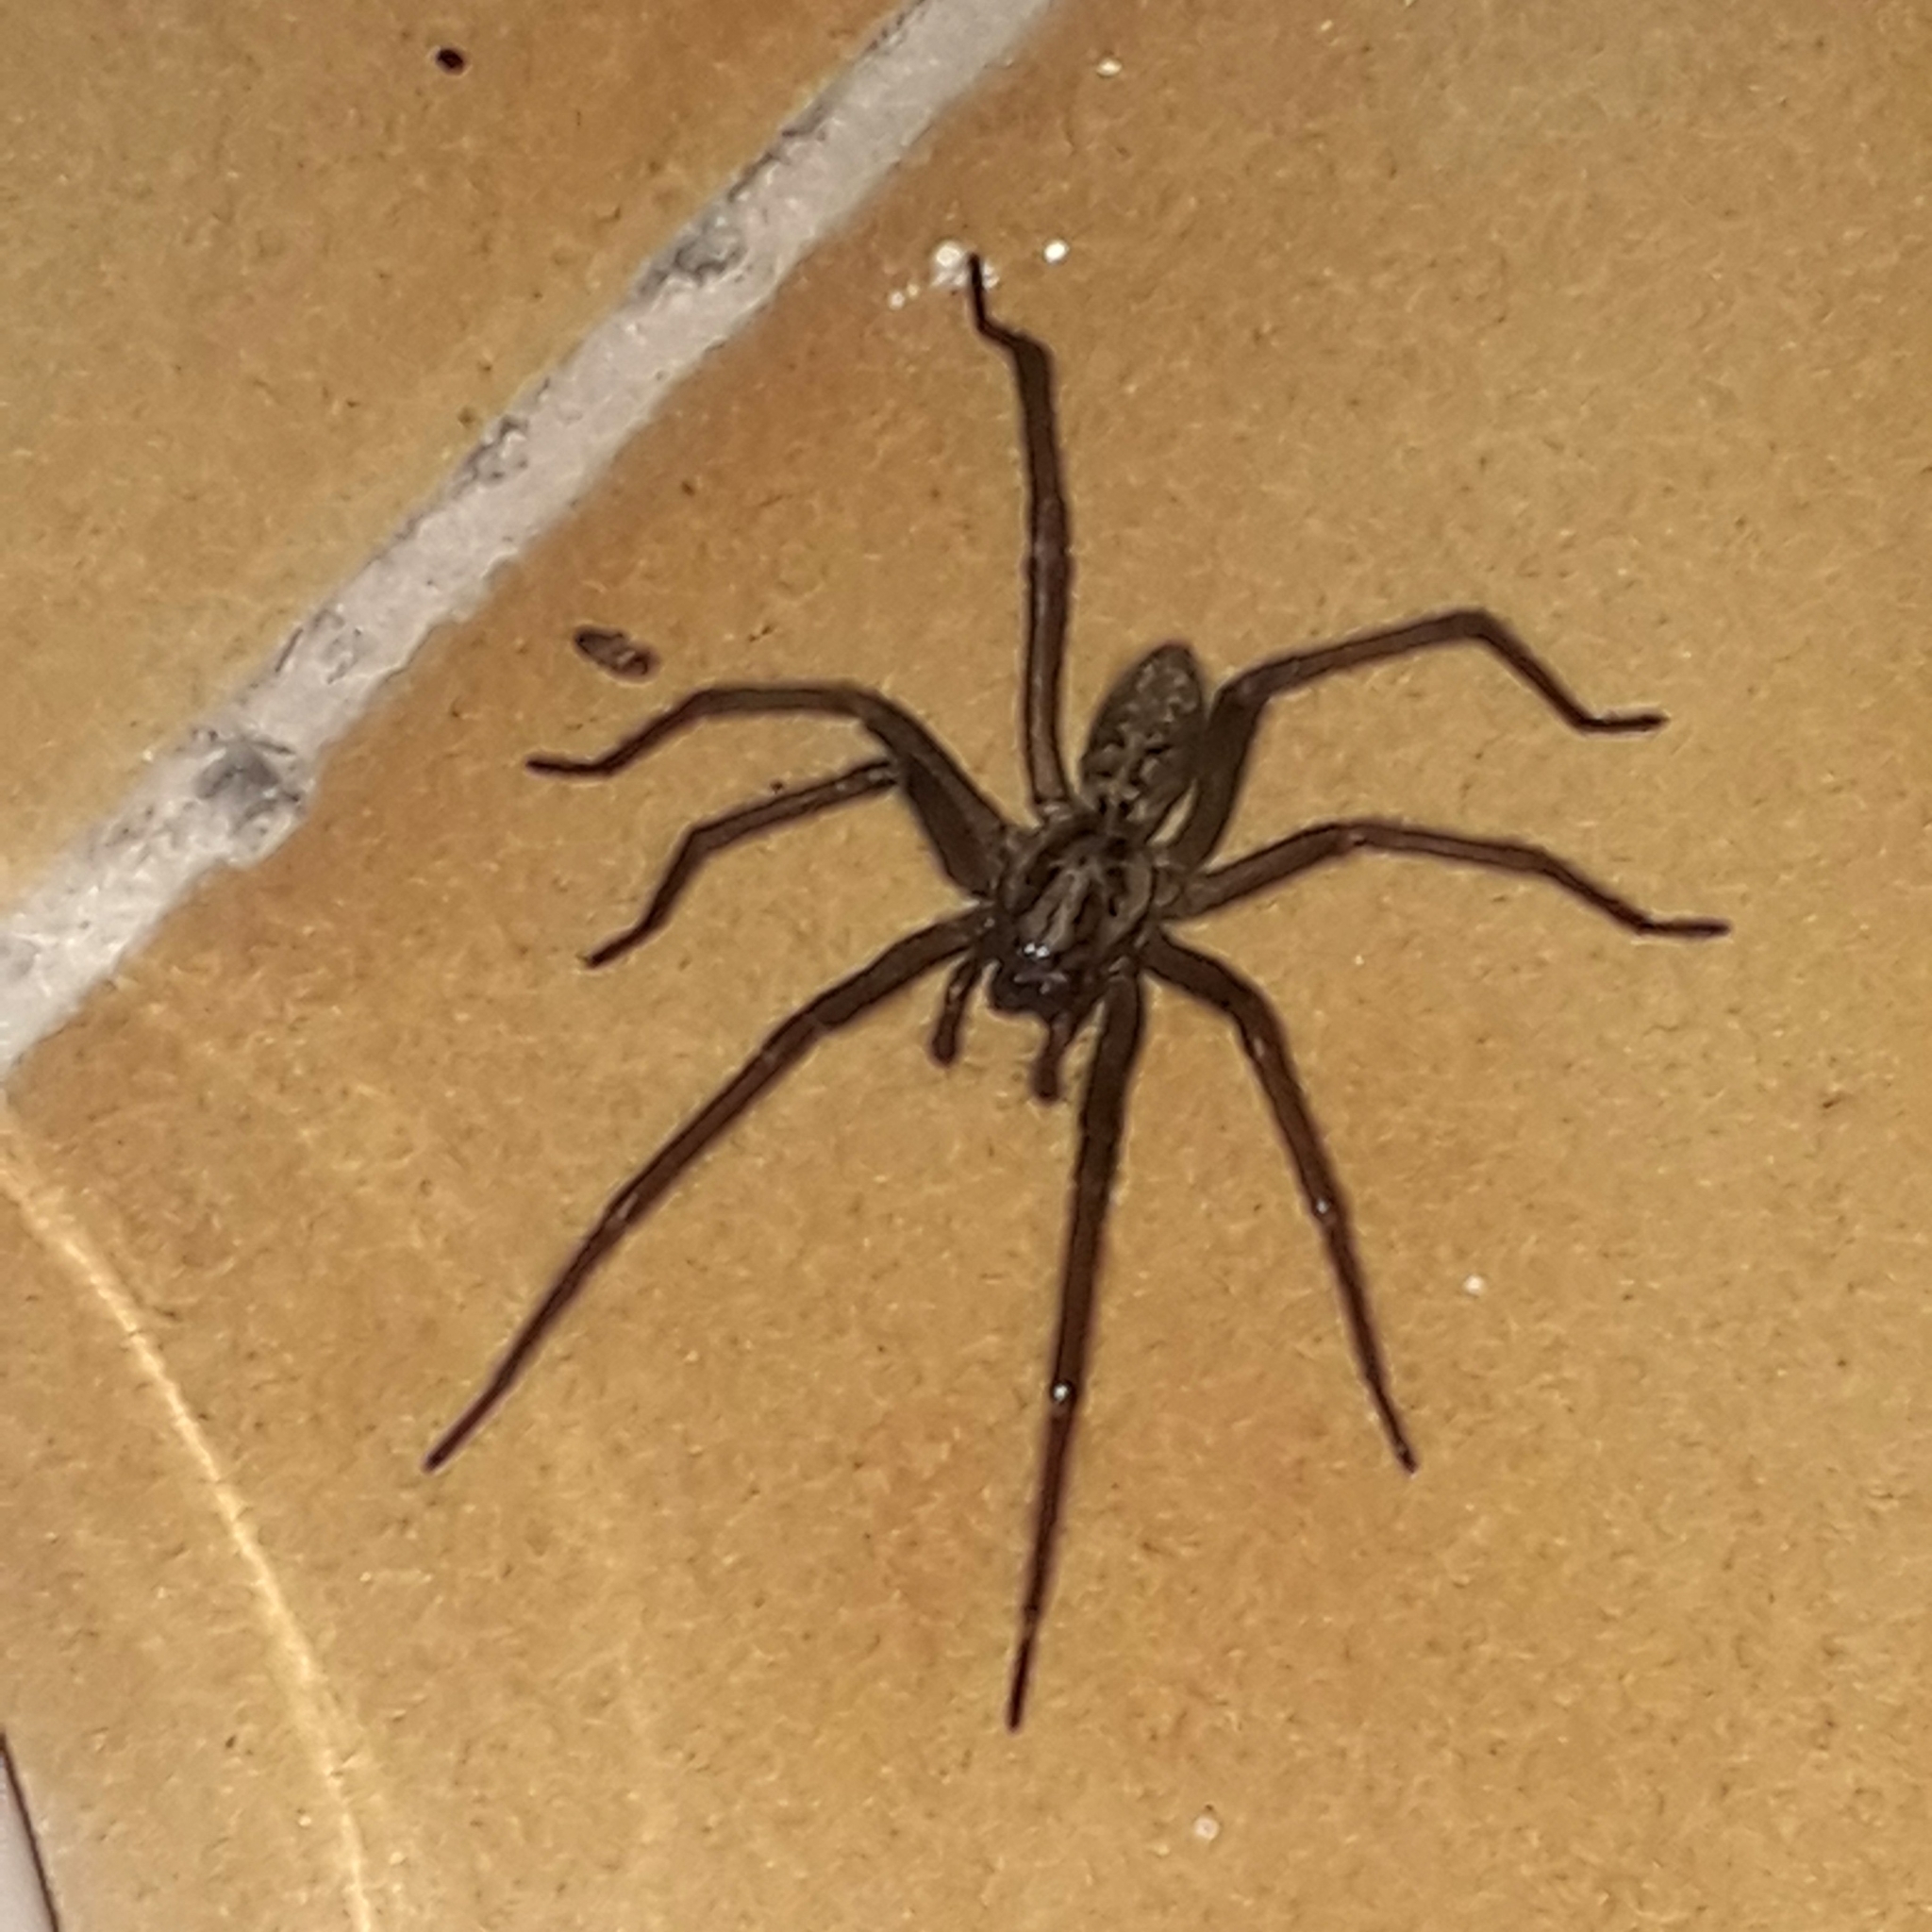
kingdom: Animalia
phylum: Arthropoda
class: Arachnida
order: Araneae
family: Agelenidae
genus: Eratigena
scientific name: Eratigena
